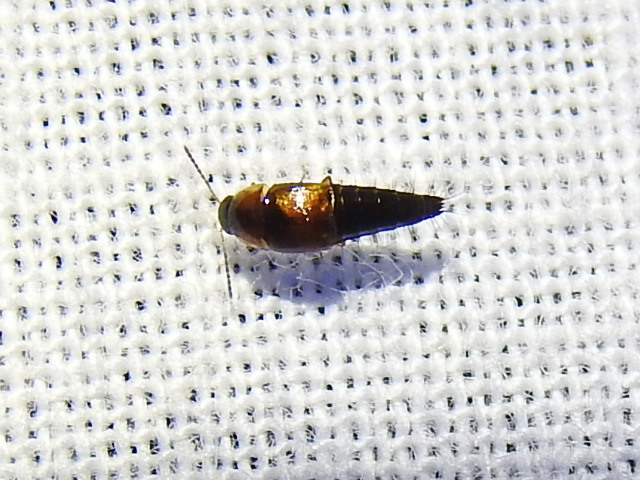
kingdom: Animalia
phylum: Arthropoda
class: Insecta
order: Coleoptera
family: Staphylinidae
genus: Tachyporus
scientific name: Tachyporus jocosus
